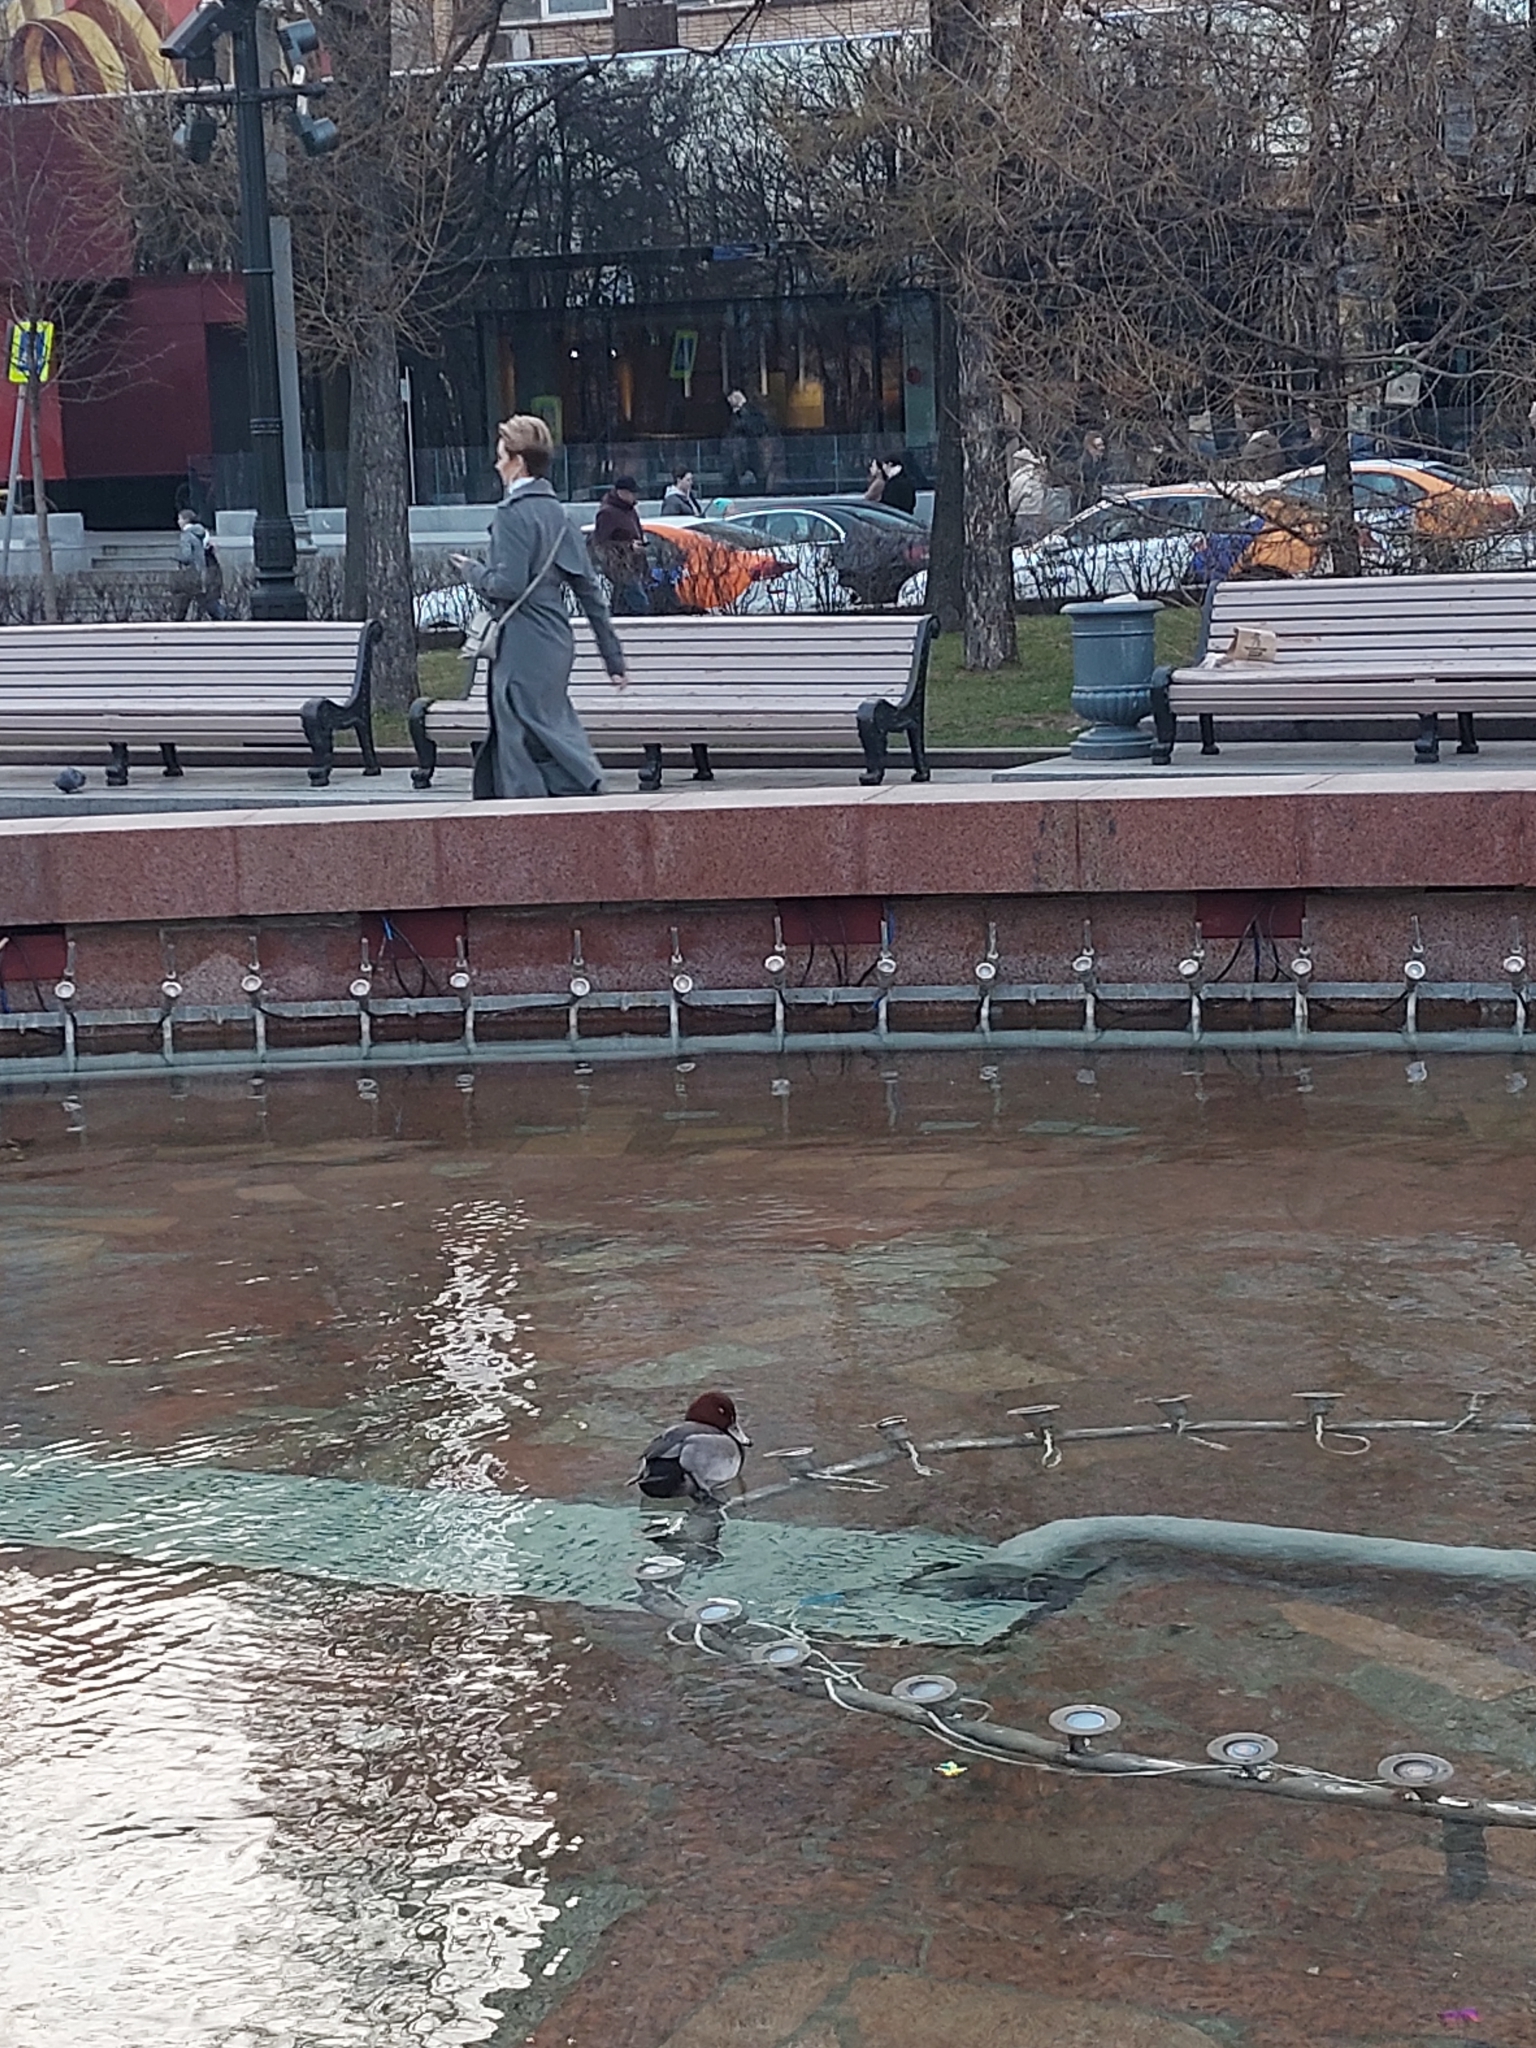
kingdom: Animalia
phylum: Chordata
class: Aves
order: Anseriformes
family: Anatidae
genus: Aythya
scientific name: Aythya ferina
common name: Common pochard
